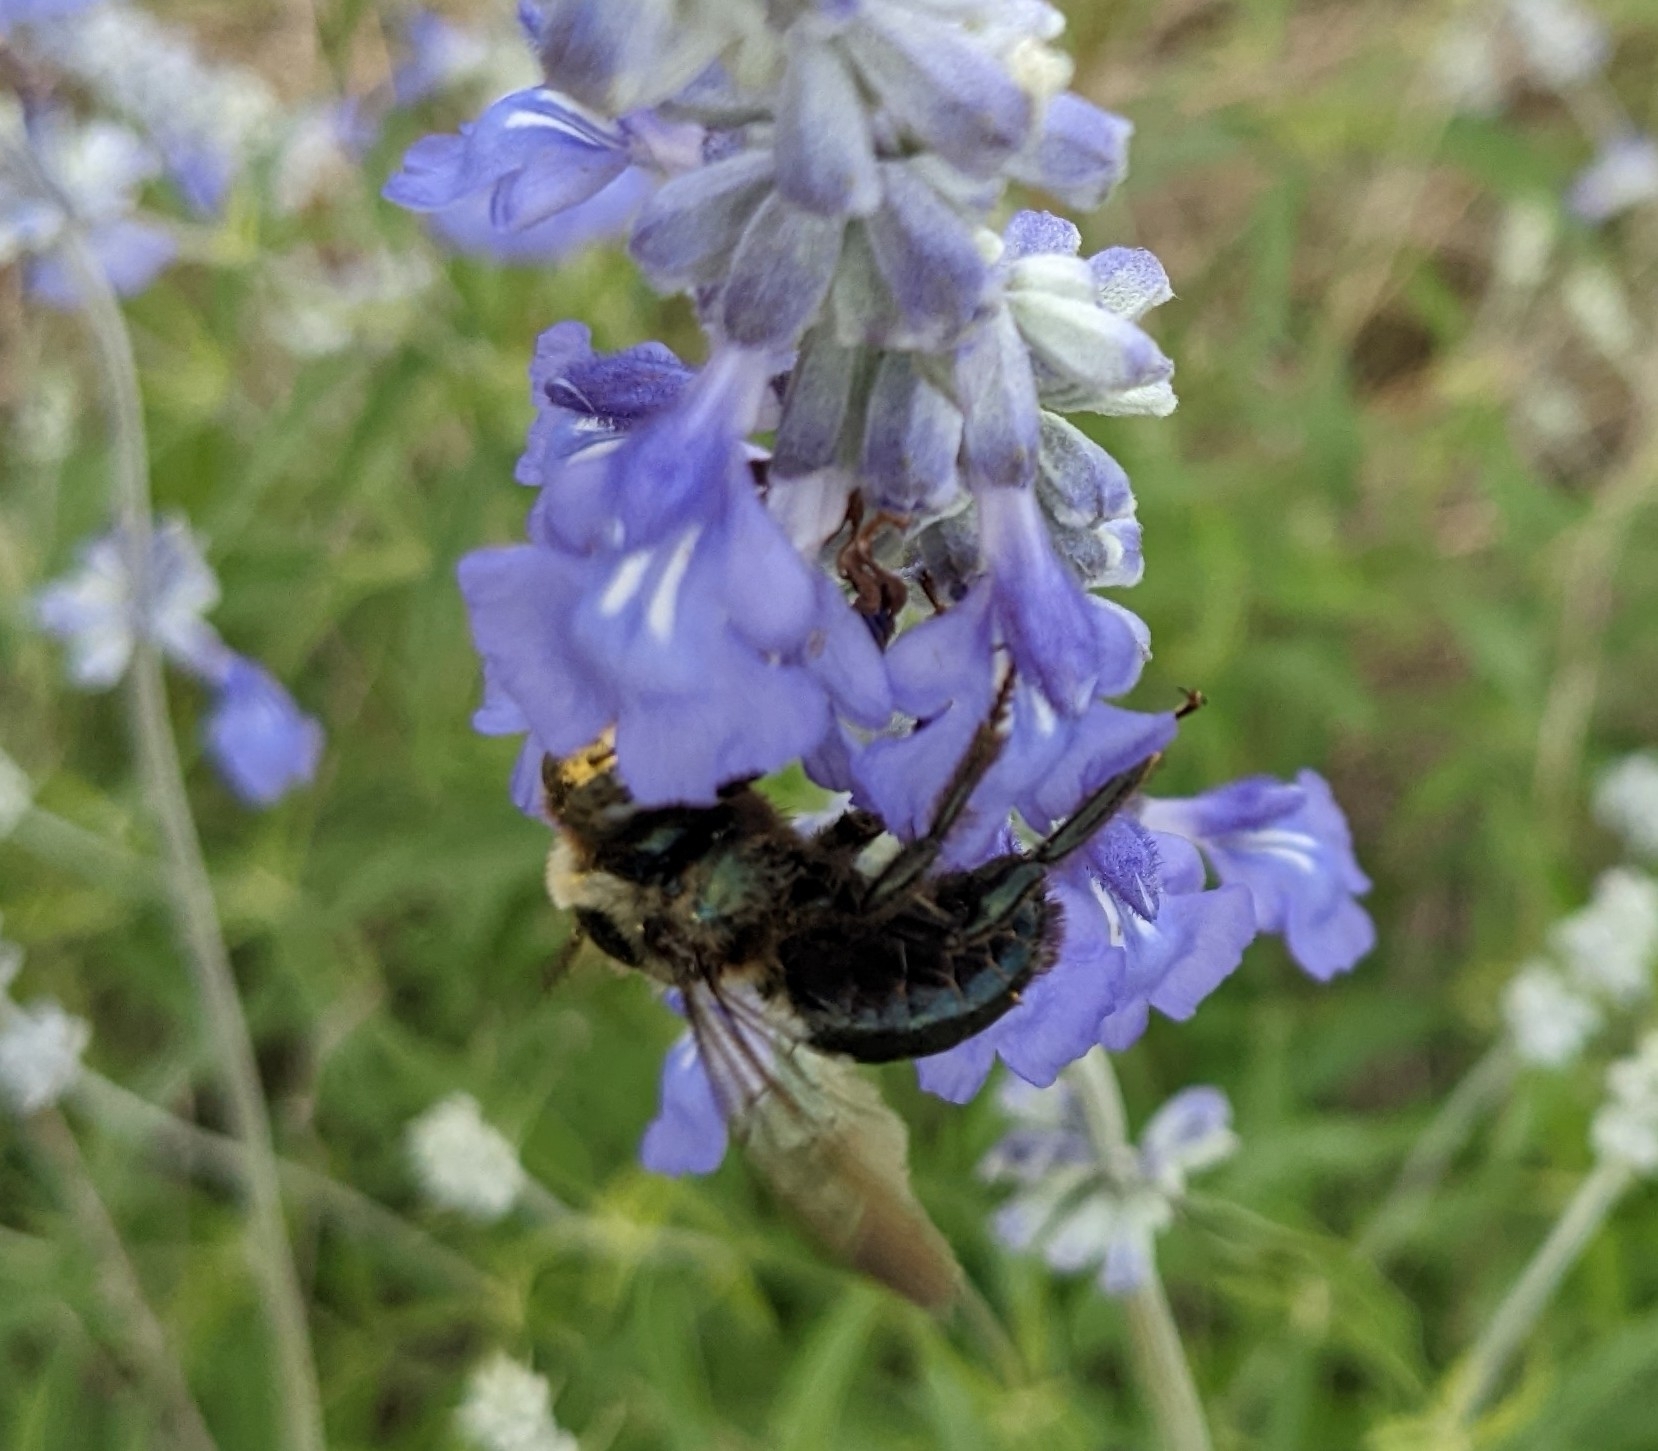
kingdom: Animalia
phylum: Arthropoda
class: Insecta
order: Hymenoptera
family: Apidae
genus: Xylocopa
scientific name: Xylocopa virginica
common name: Carpenter bee
